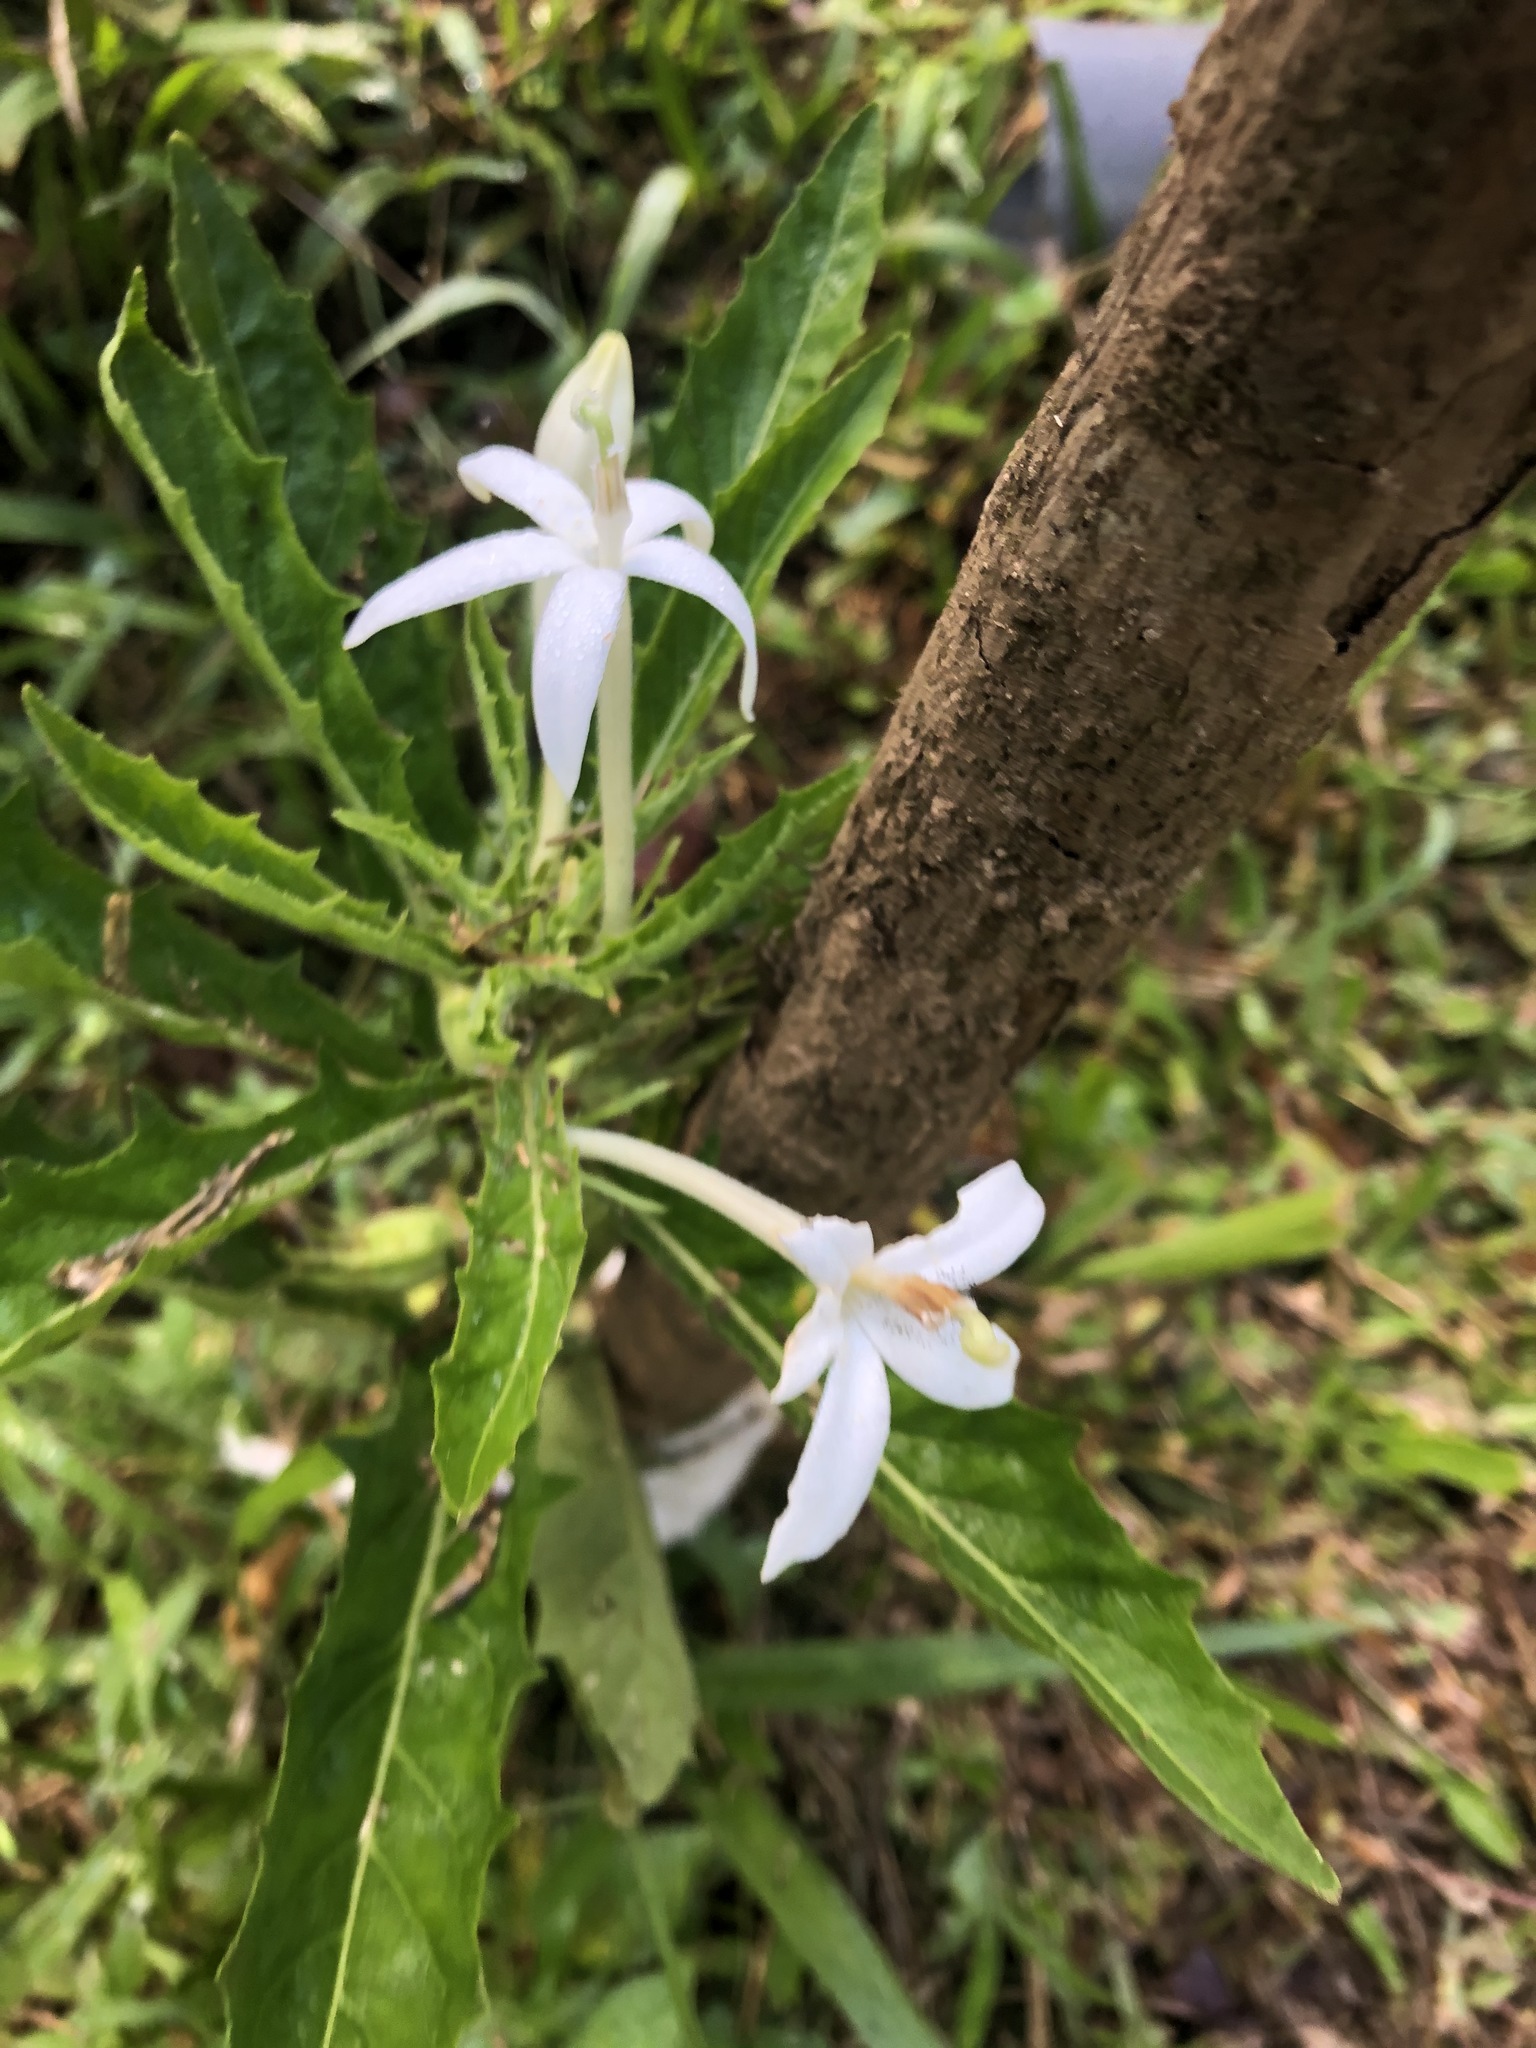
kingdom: Plantae
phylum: Tracheophyta
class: Magnoliopsida
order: Asterales
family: Campanulaceae
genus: Hippobroma
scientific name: Hippobroma longiflora
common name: Madamfate
